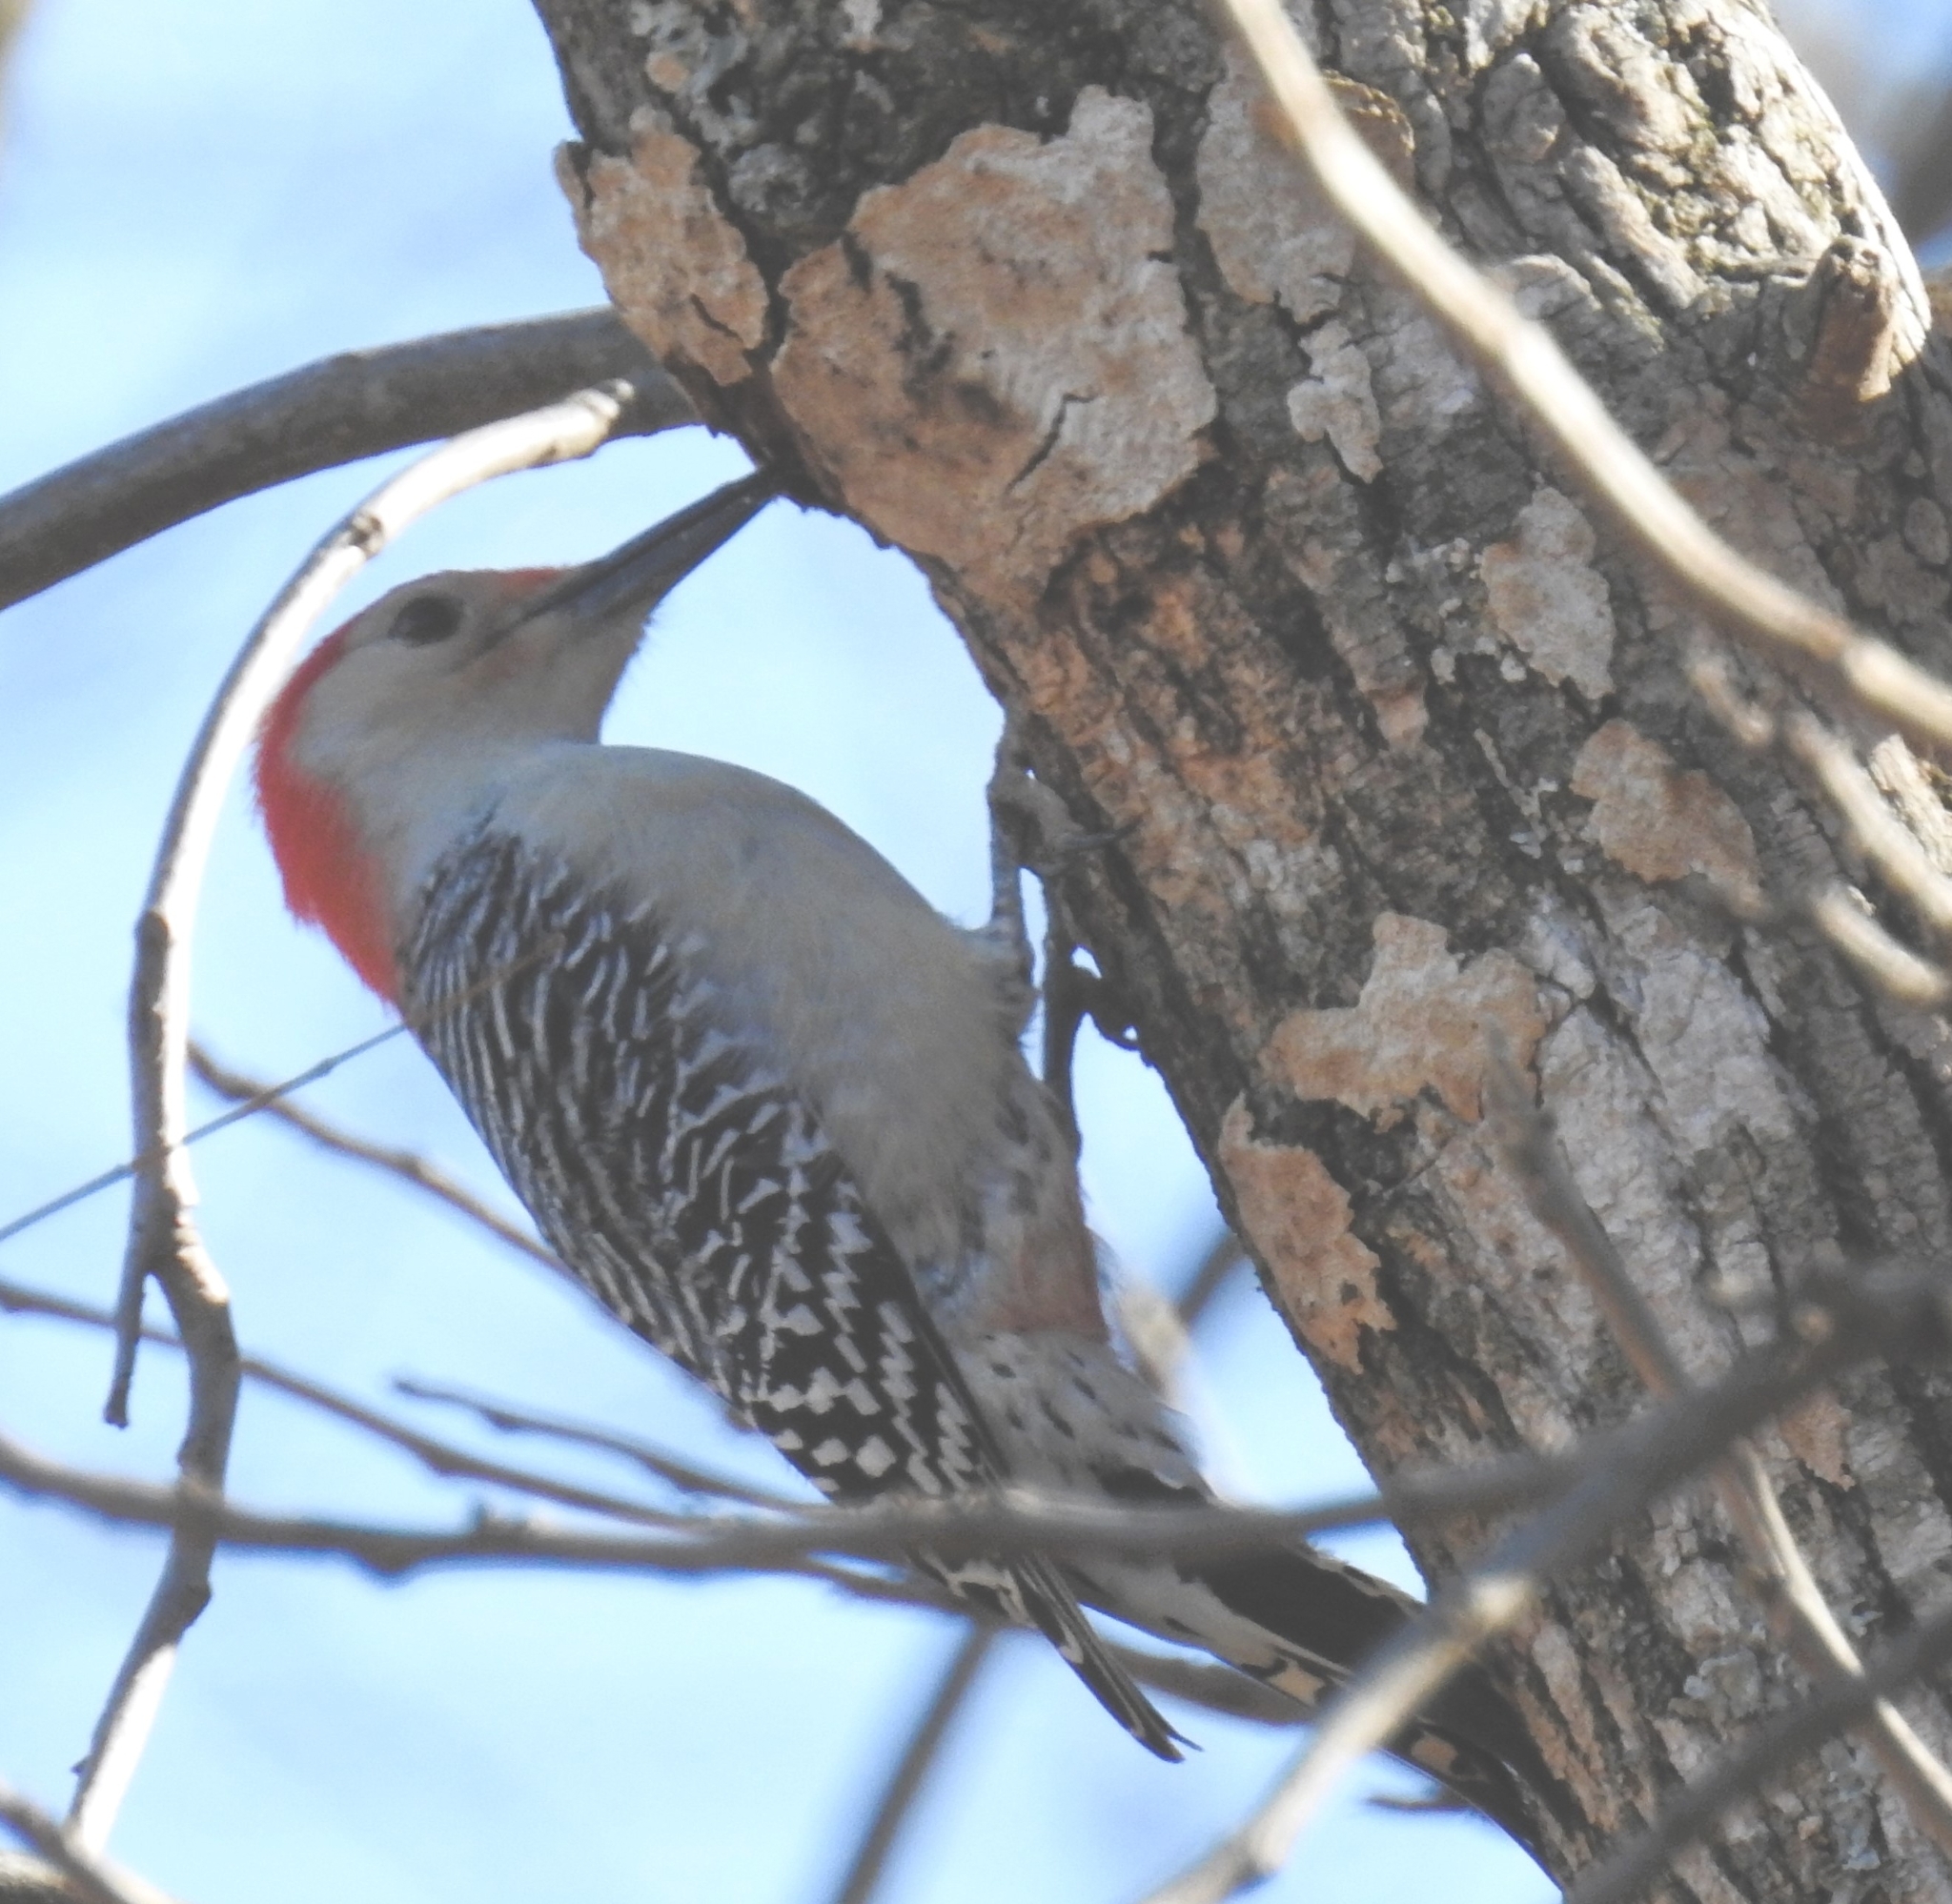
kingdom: Animalia
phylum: Chordata
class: Aves
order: Piciformes
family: Picidae
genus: Melanerpes
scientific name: Melanerpes carolinus
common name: Red-bellied woodpecker
